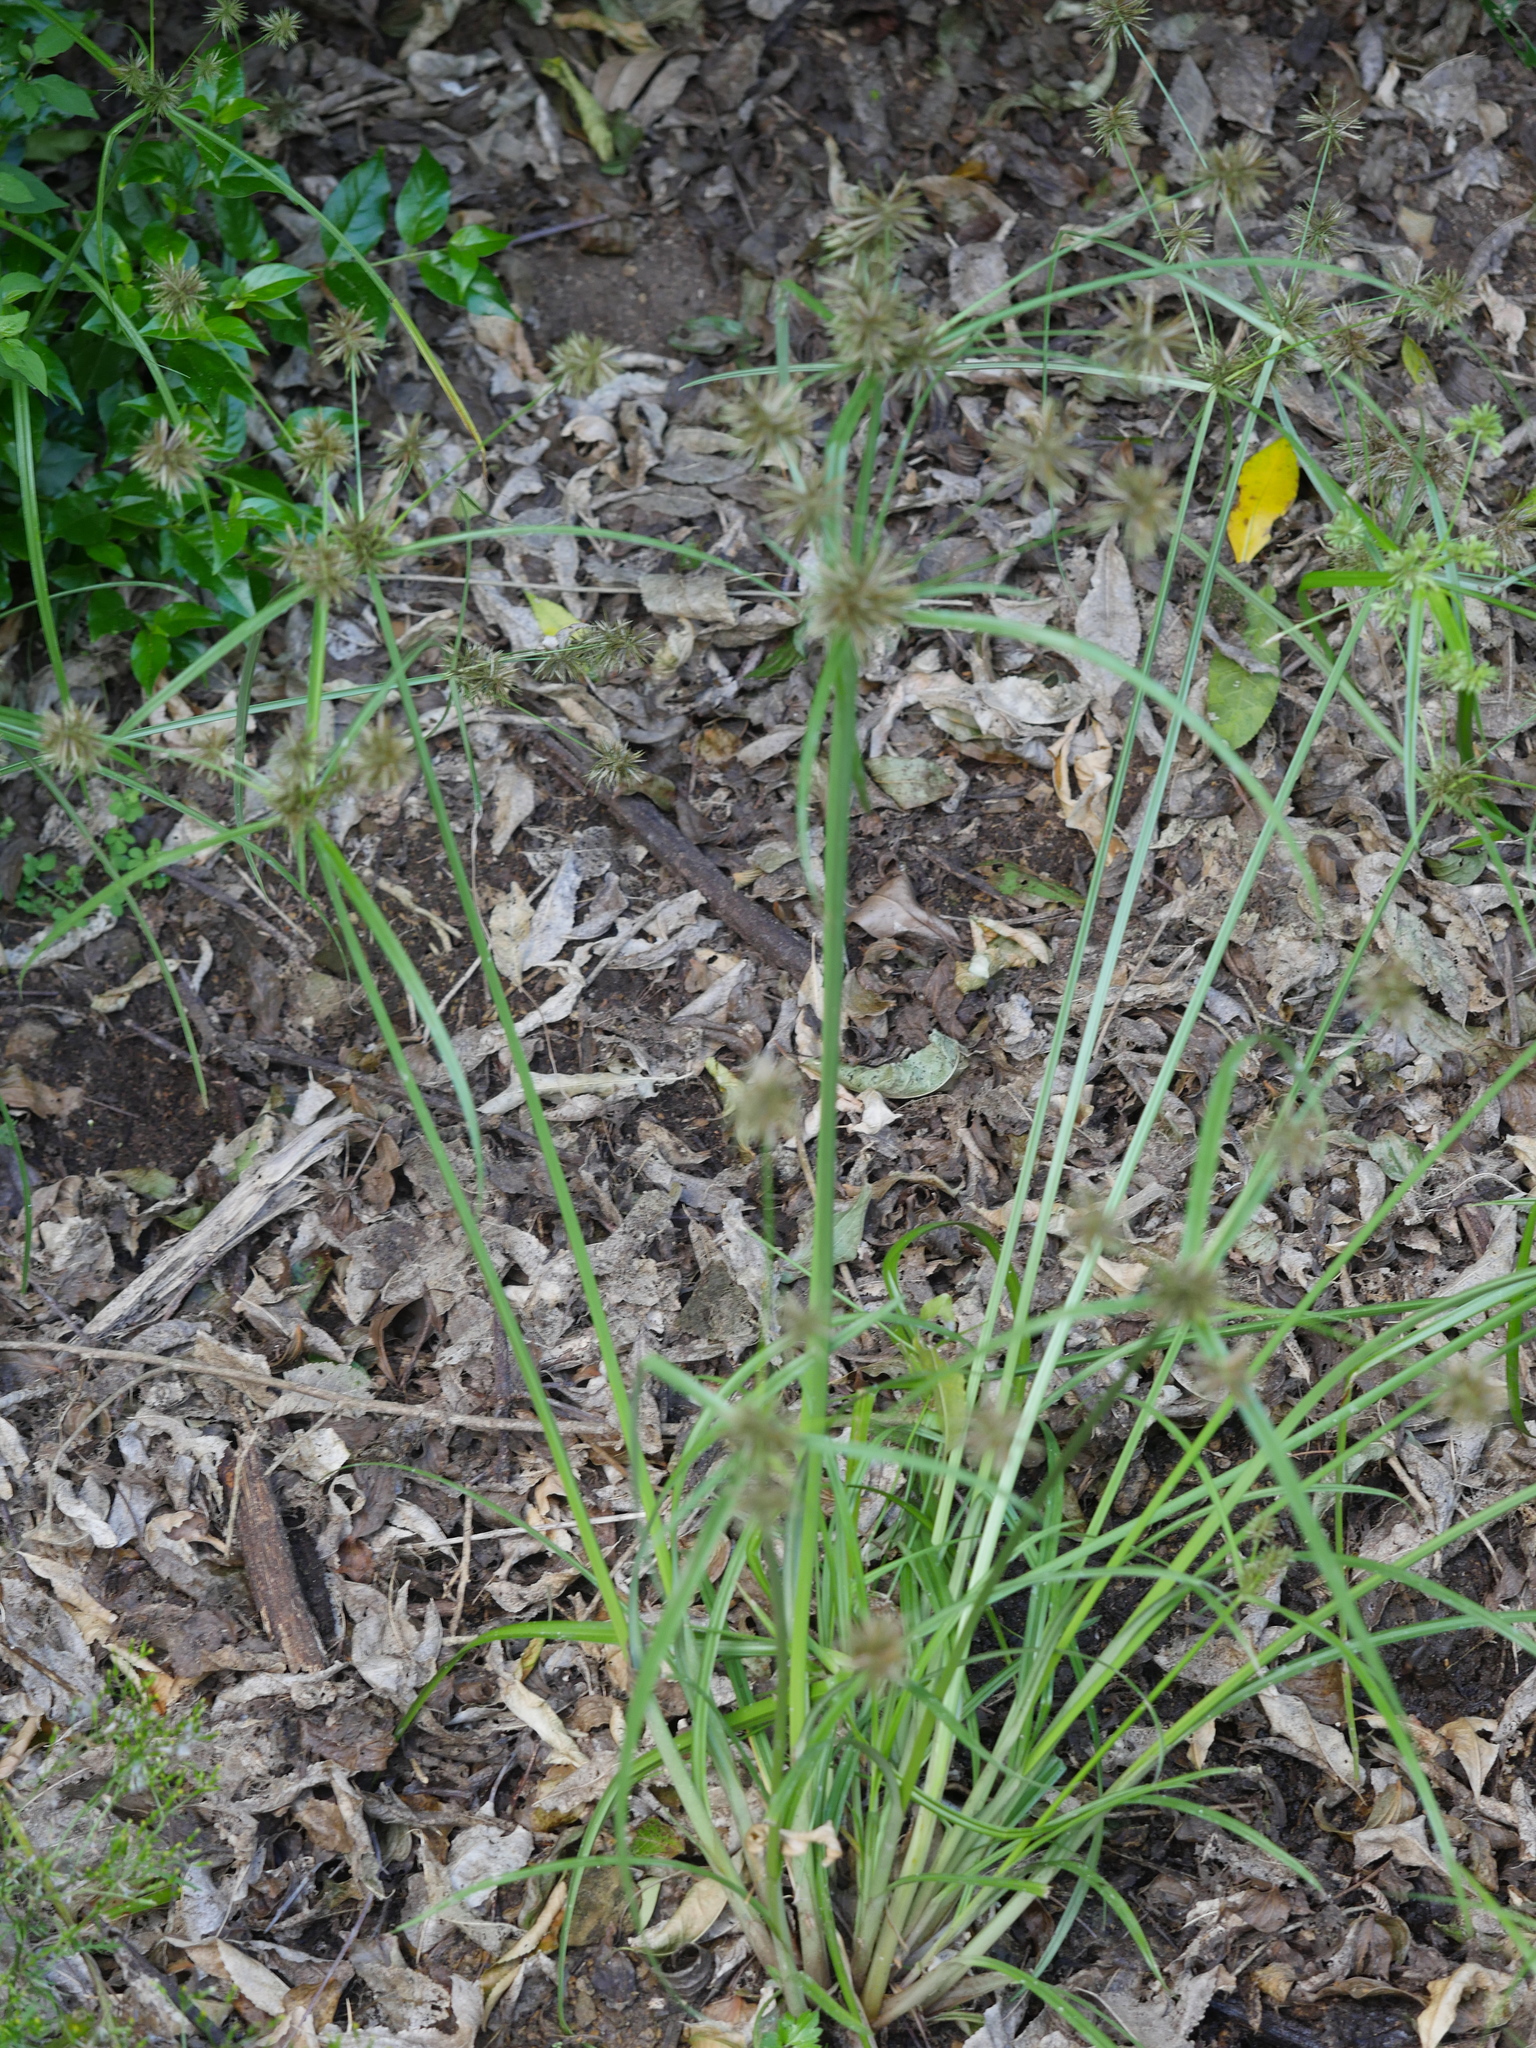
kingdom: Plantae
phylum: Tracheophyta
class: Liliopsida
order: Poales
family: Cyperaceae
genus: Cyperus
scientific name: Cyperus congestus
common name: Dense flat sedge
